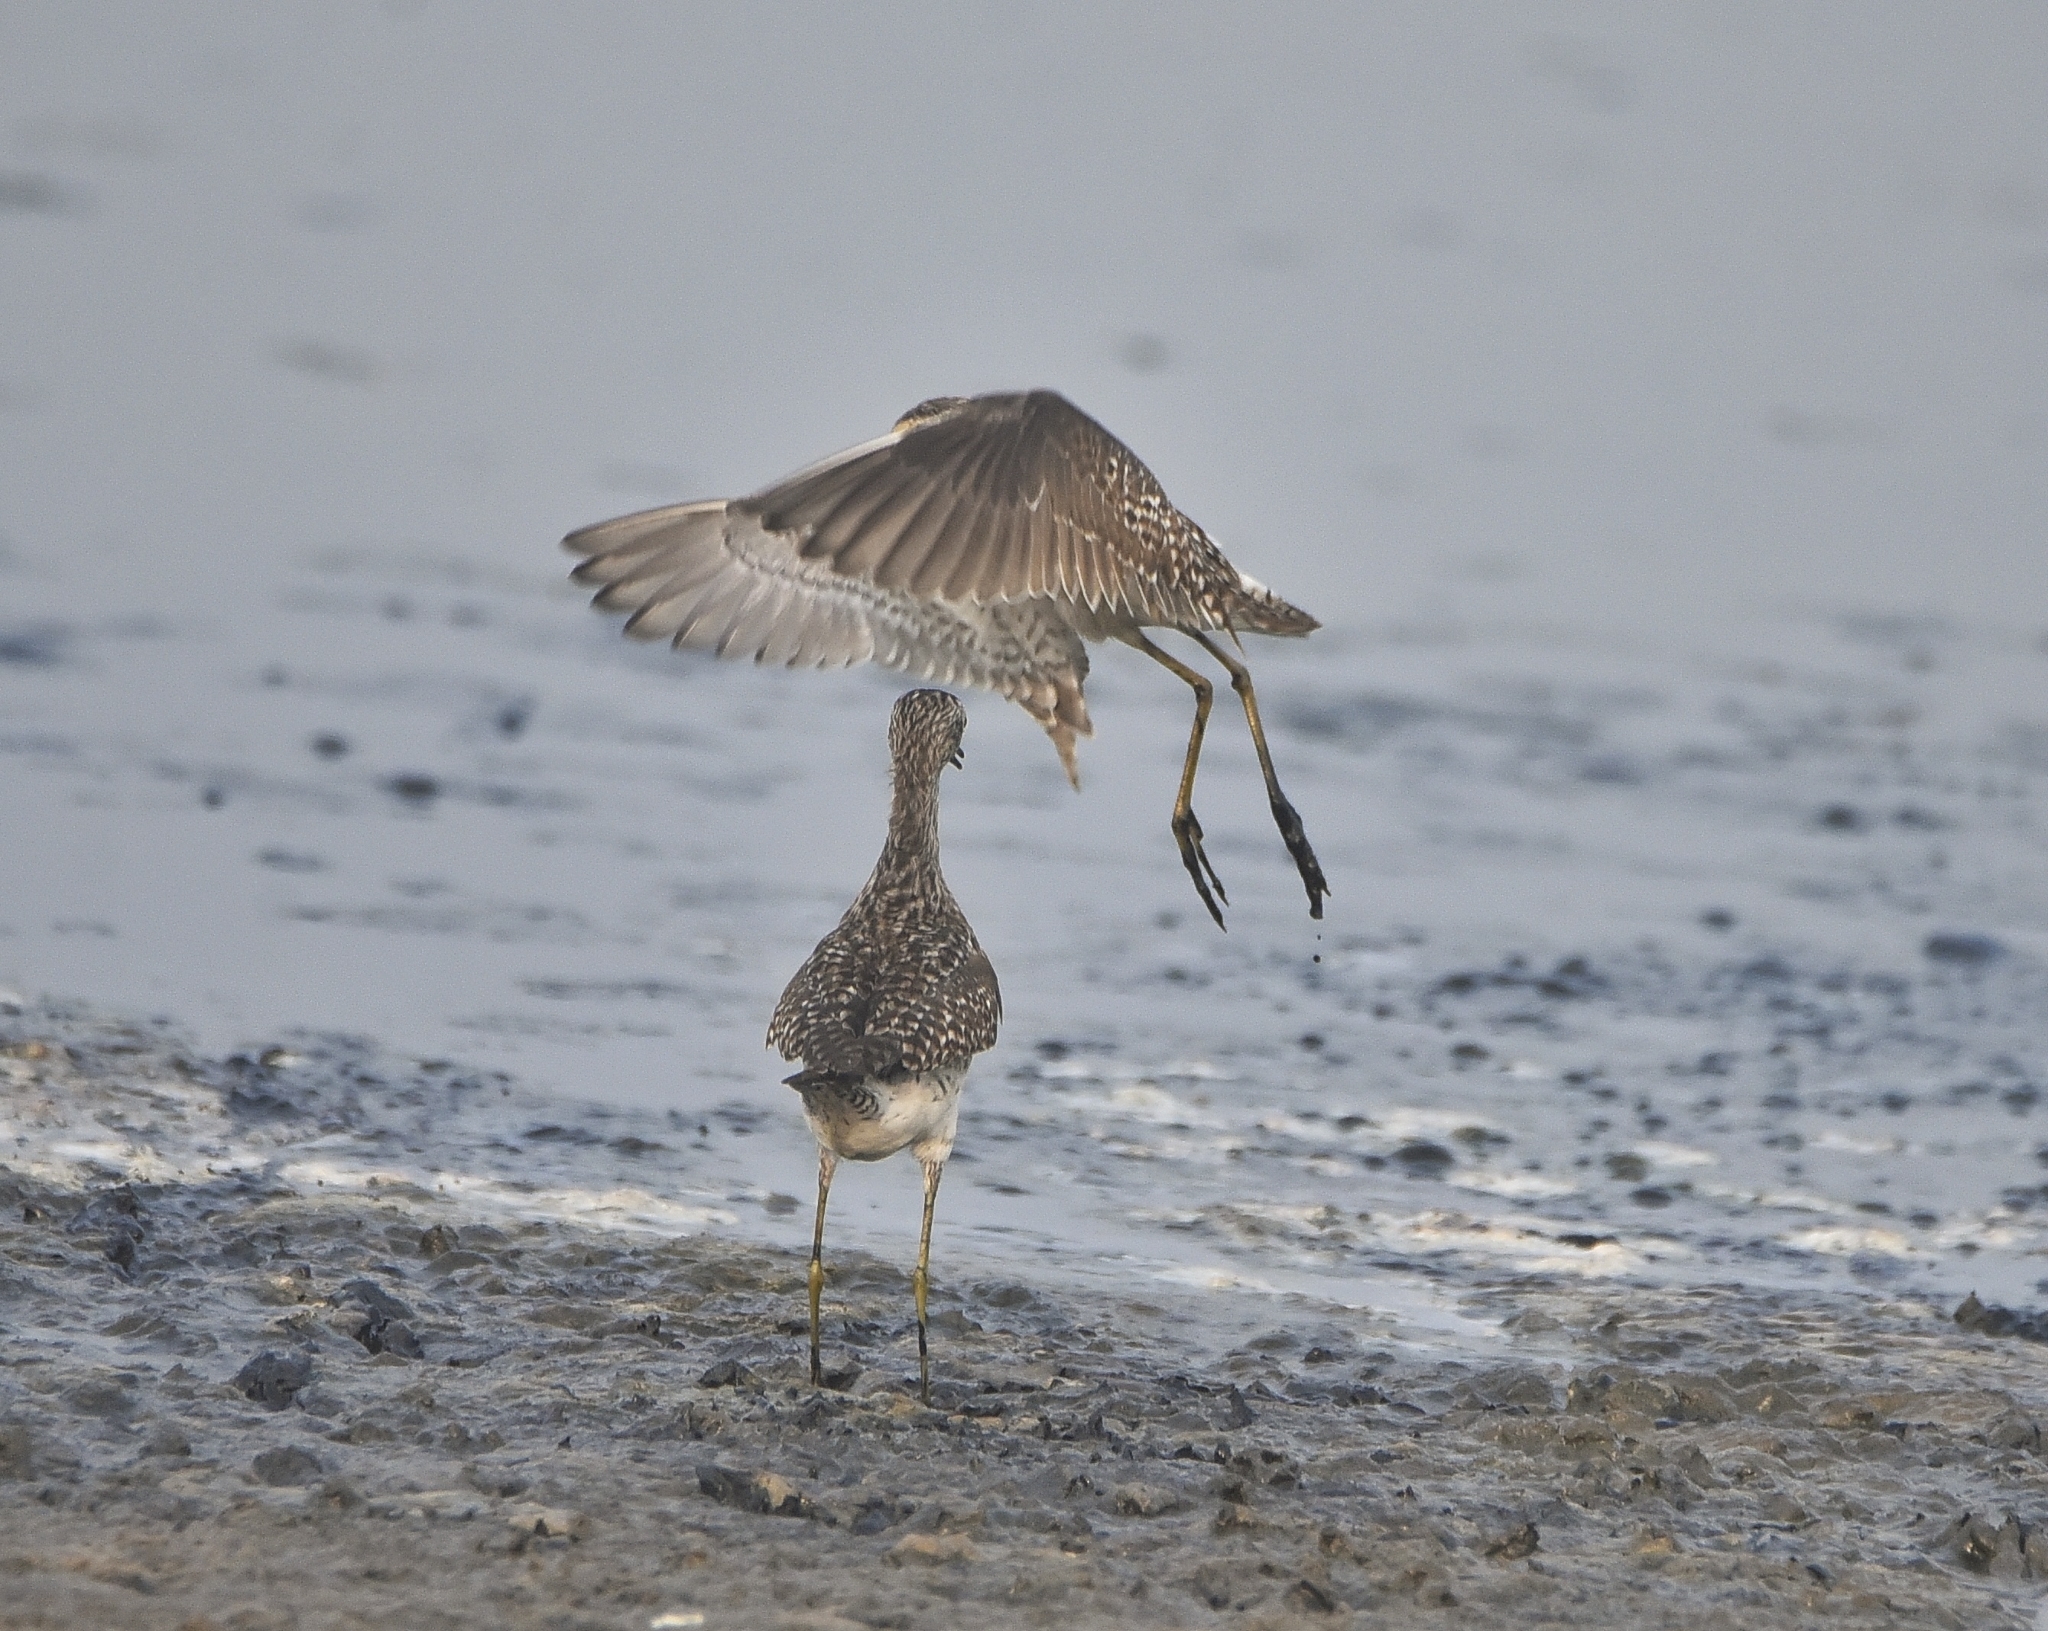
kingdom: Animalia
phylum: Chordata
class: Aves
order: Charadriiformes
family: Scolopacidae
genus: Tringa
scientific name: Tringa glareola
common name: Wood sandpiper
